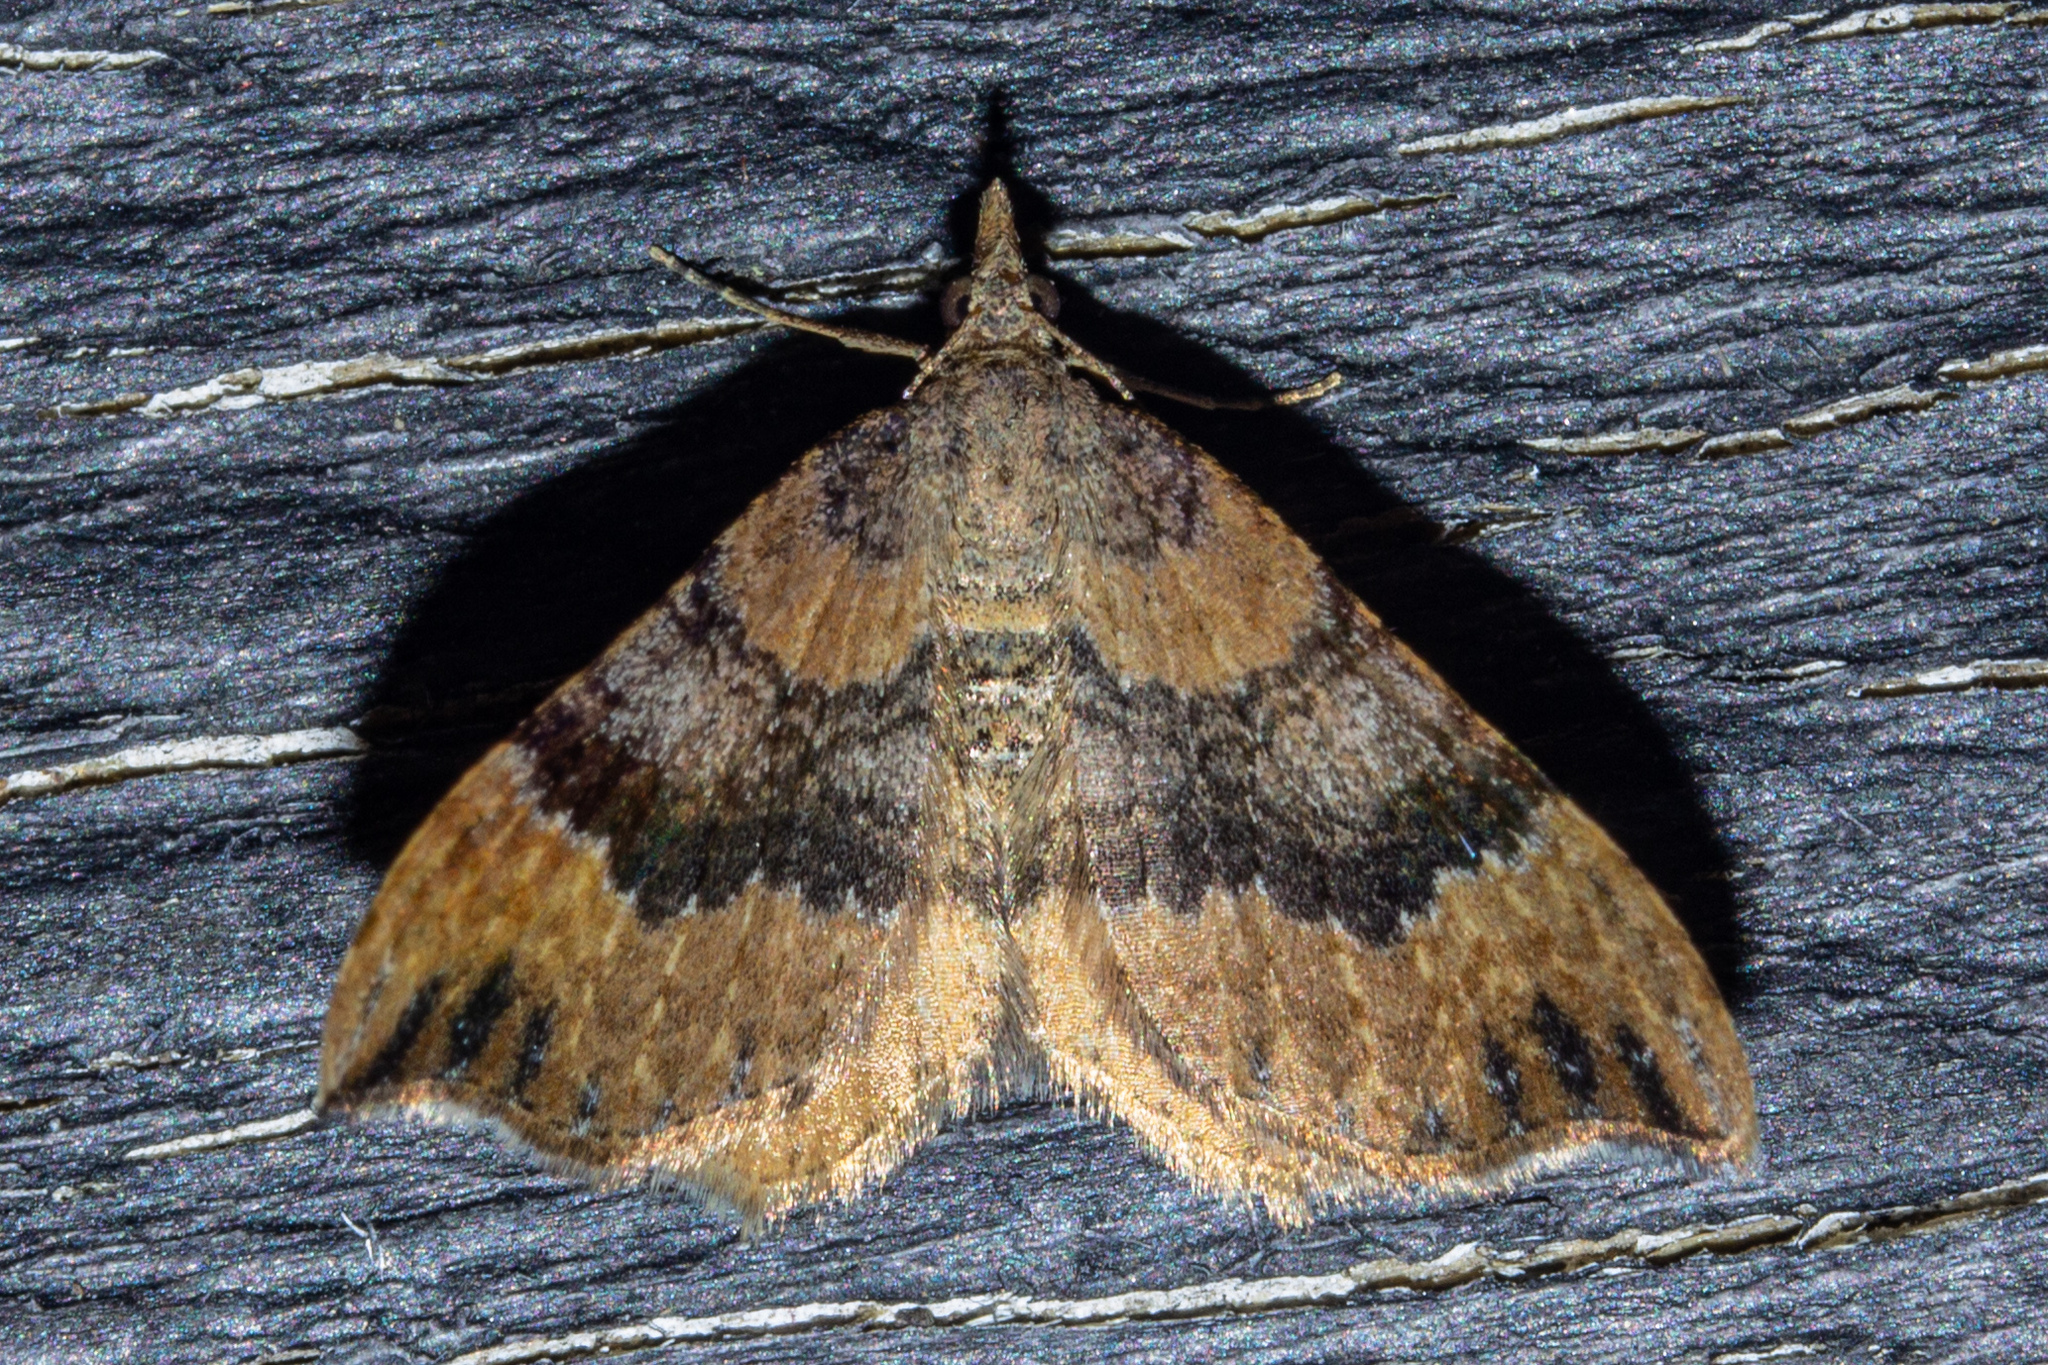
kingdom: Animalia
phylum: Arthropoda
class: Insecta
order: Lepidoptera
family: Geometridae
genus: Homodotis
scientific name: Homodotis megaspilata
